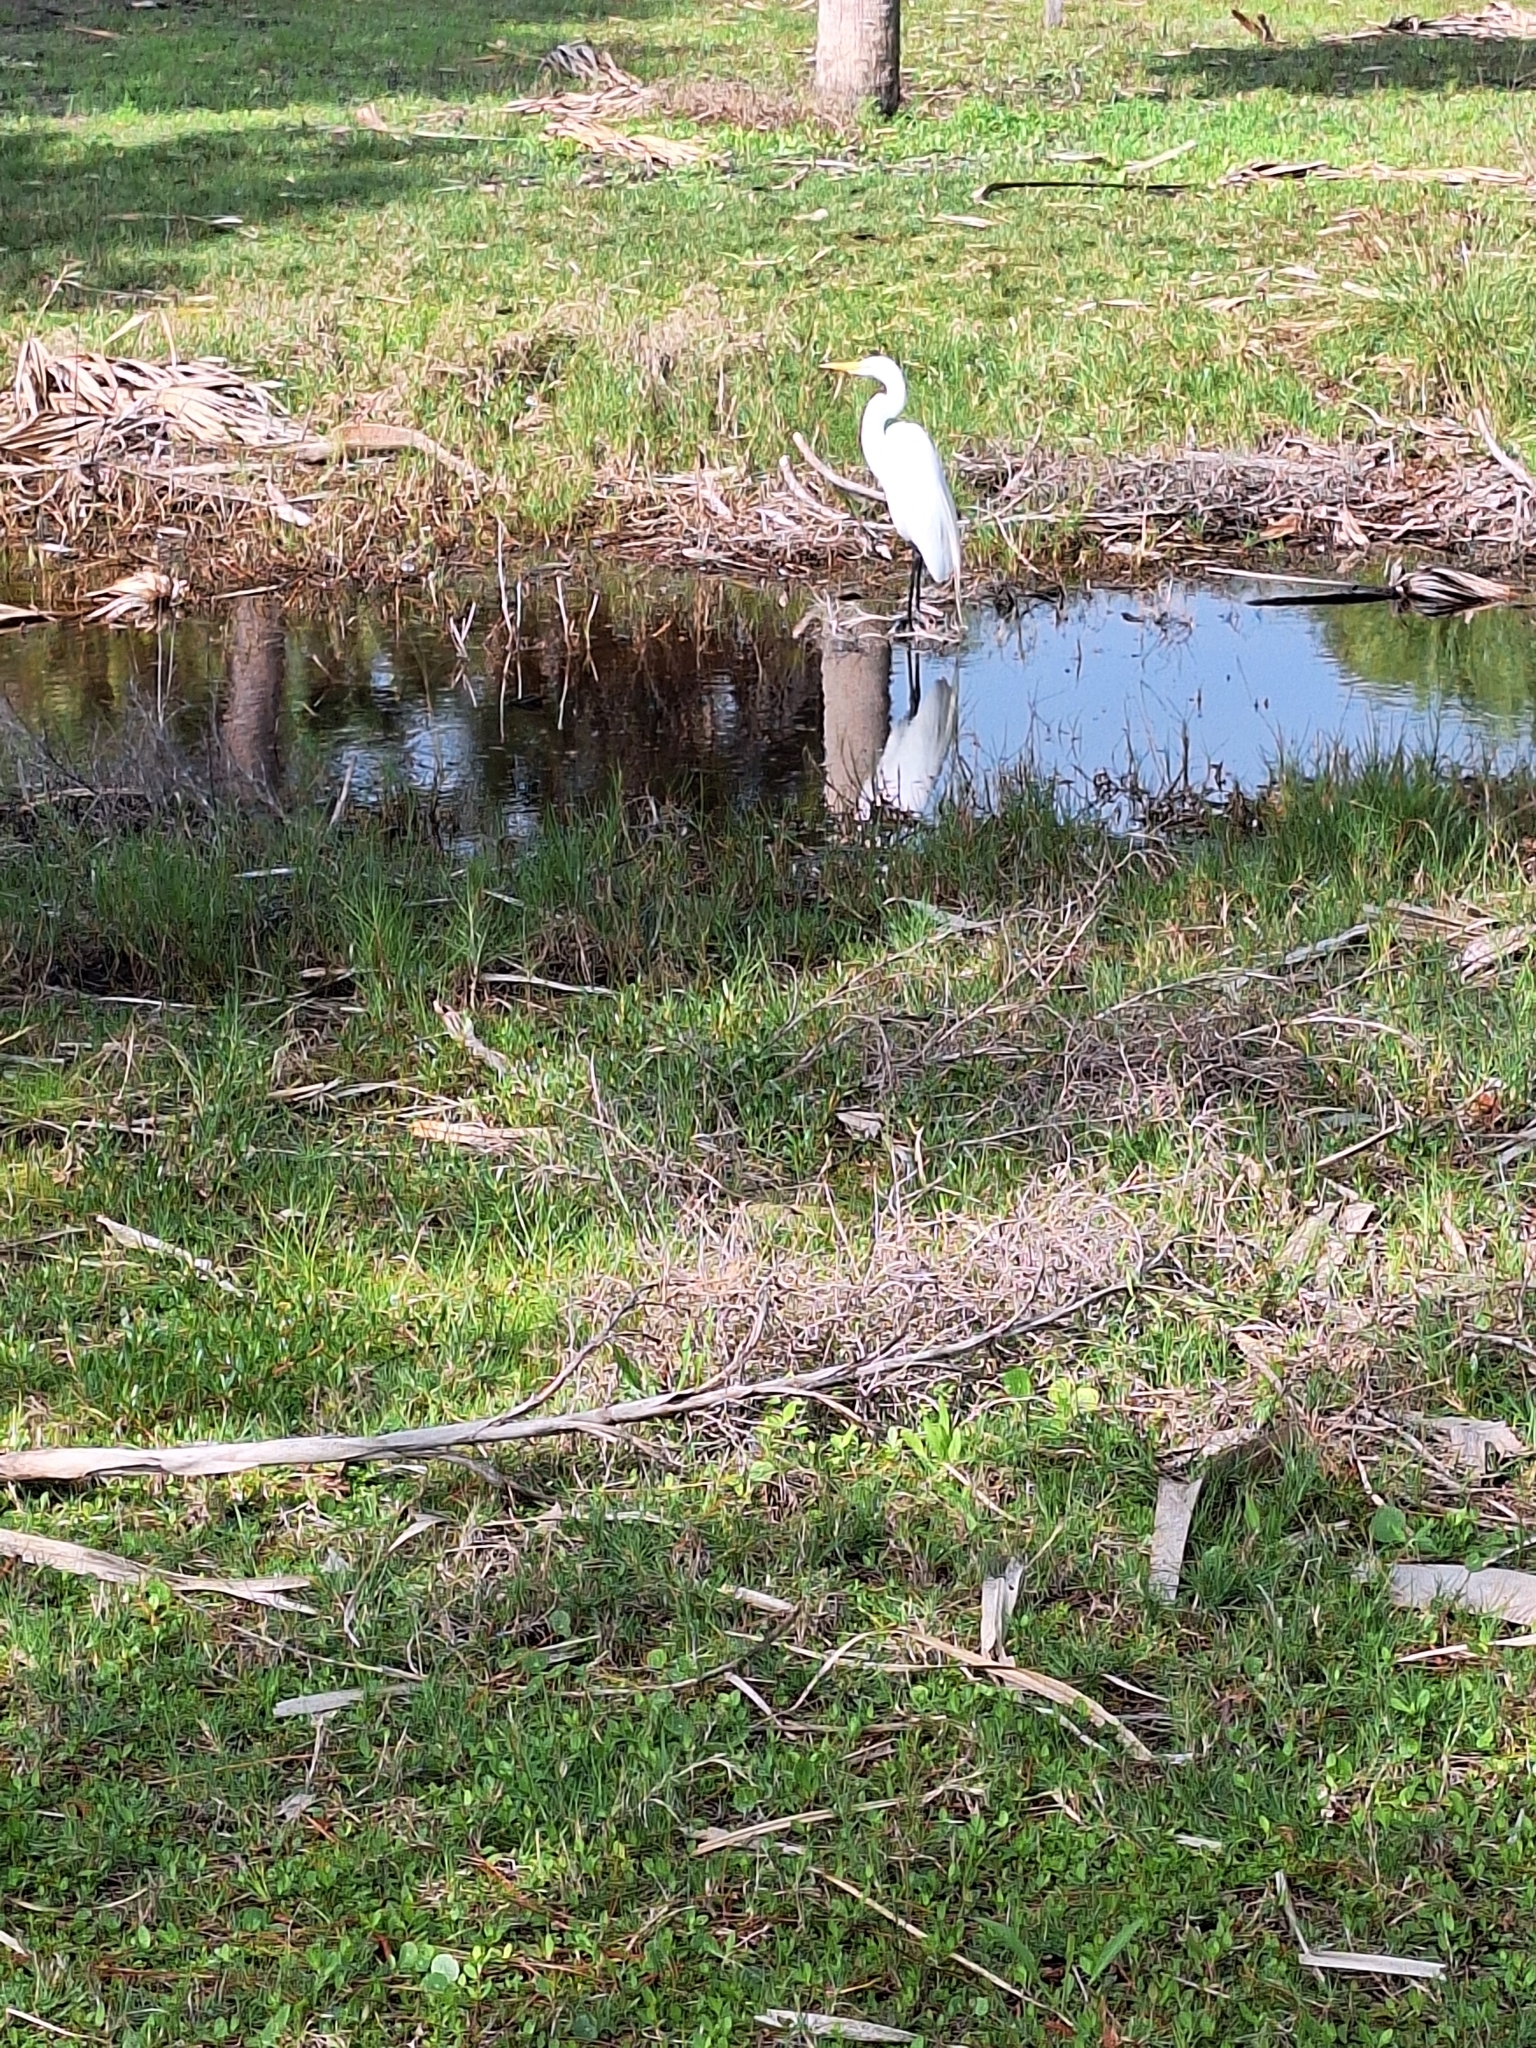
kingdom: Animalia
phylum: Chordata
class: Aves
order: Pelecaniformes
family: Ardeidae
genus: Ardea
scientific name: Ardea alba
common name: Great egret
